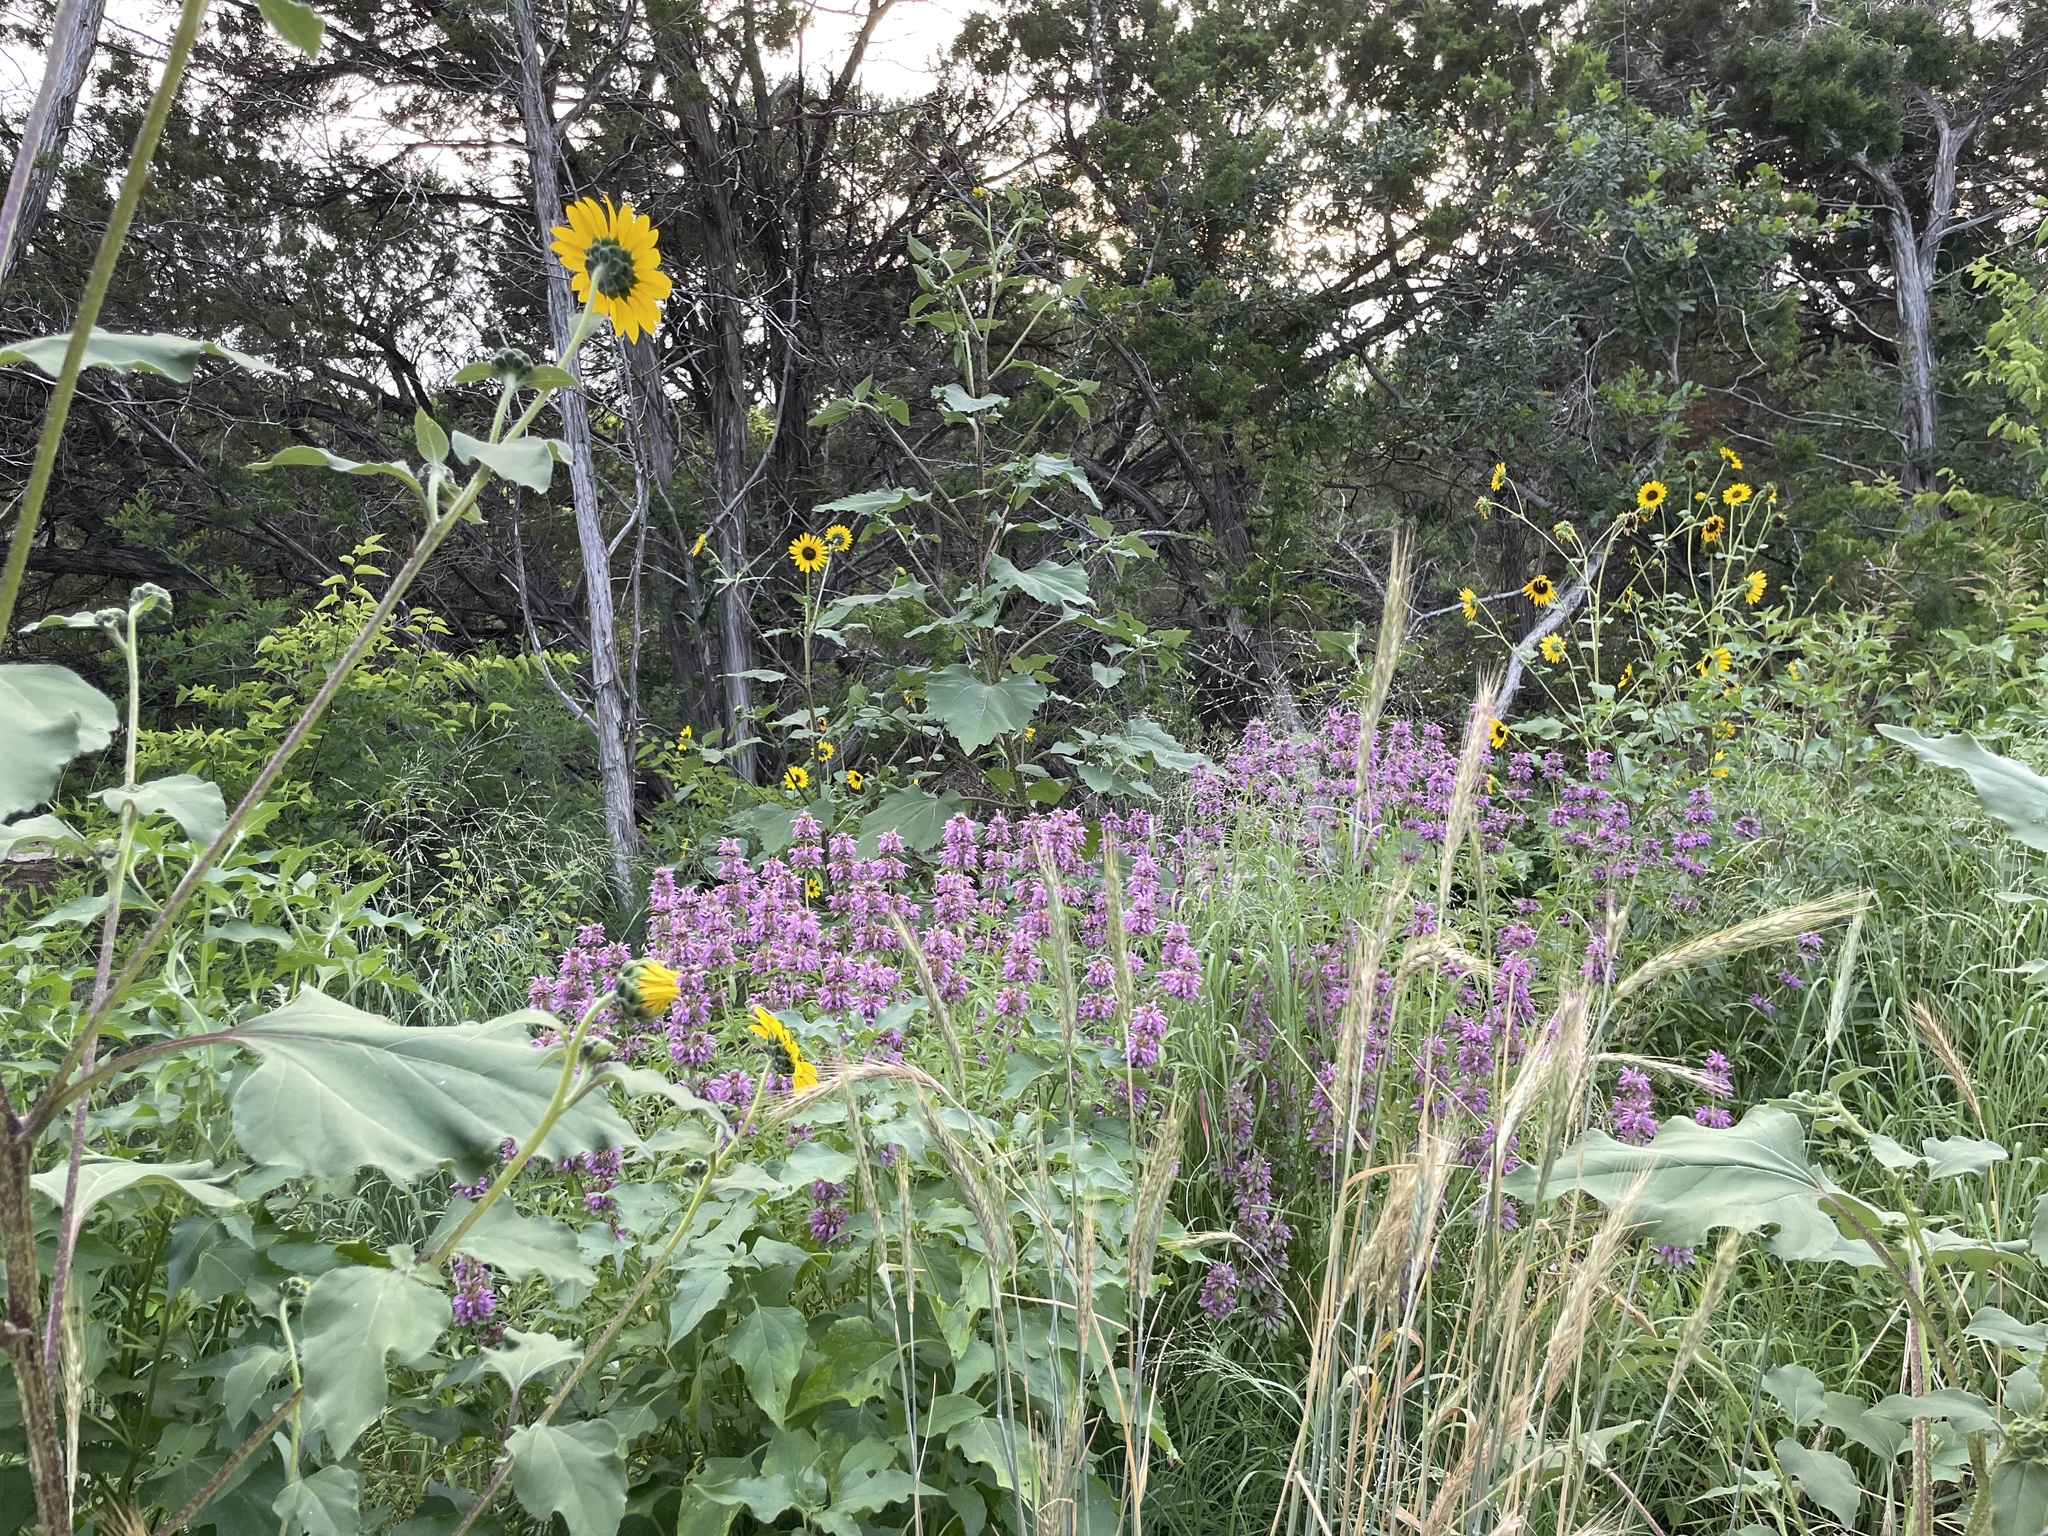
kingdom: Plantae
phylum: Tracheophyta
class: Magnoliopsida
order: Lamiales
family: Lamiaceae
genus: Monarda
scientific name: Monarda citriodora
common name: Lemon beebalm
